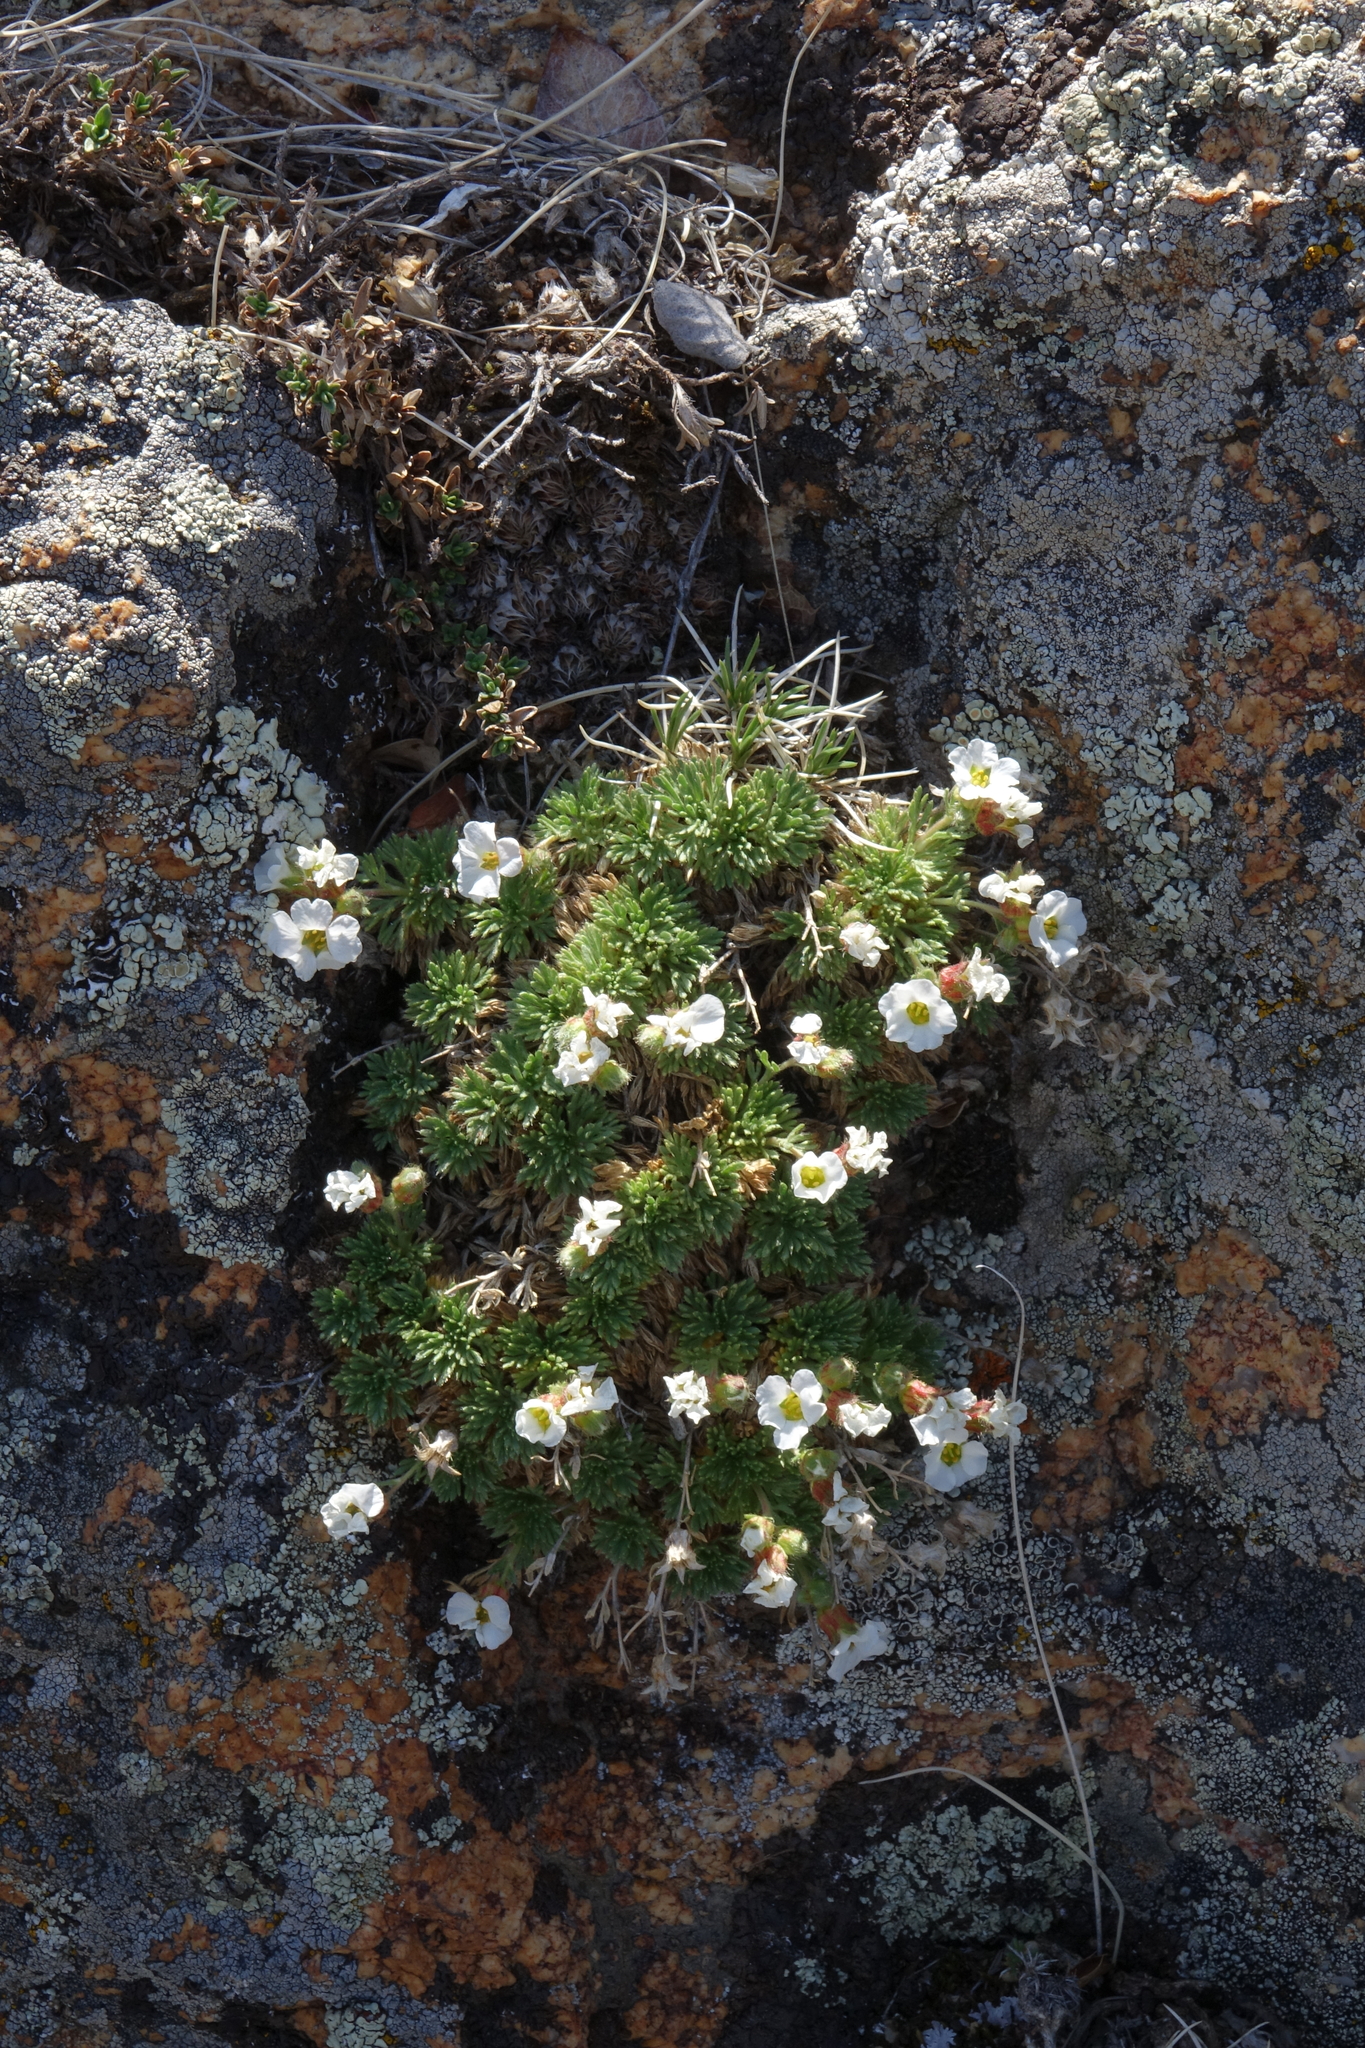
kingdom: Plantae
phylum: Tracheophyta
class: Magnoliopsida
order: Rosales
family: Rosaceae
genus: Chamaerhodos
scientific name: Chamaerhodos altaica
